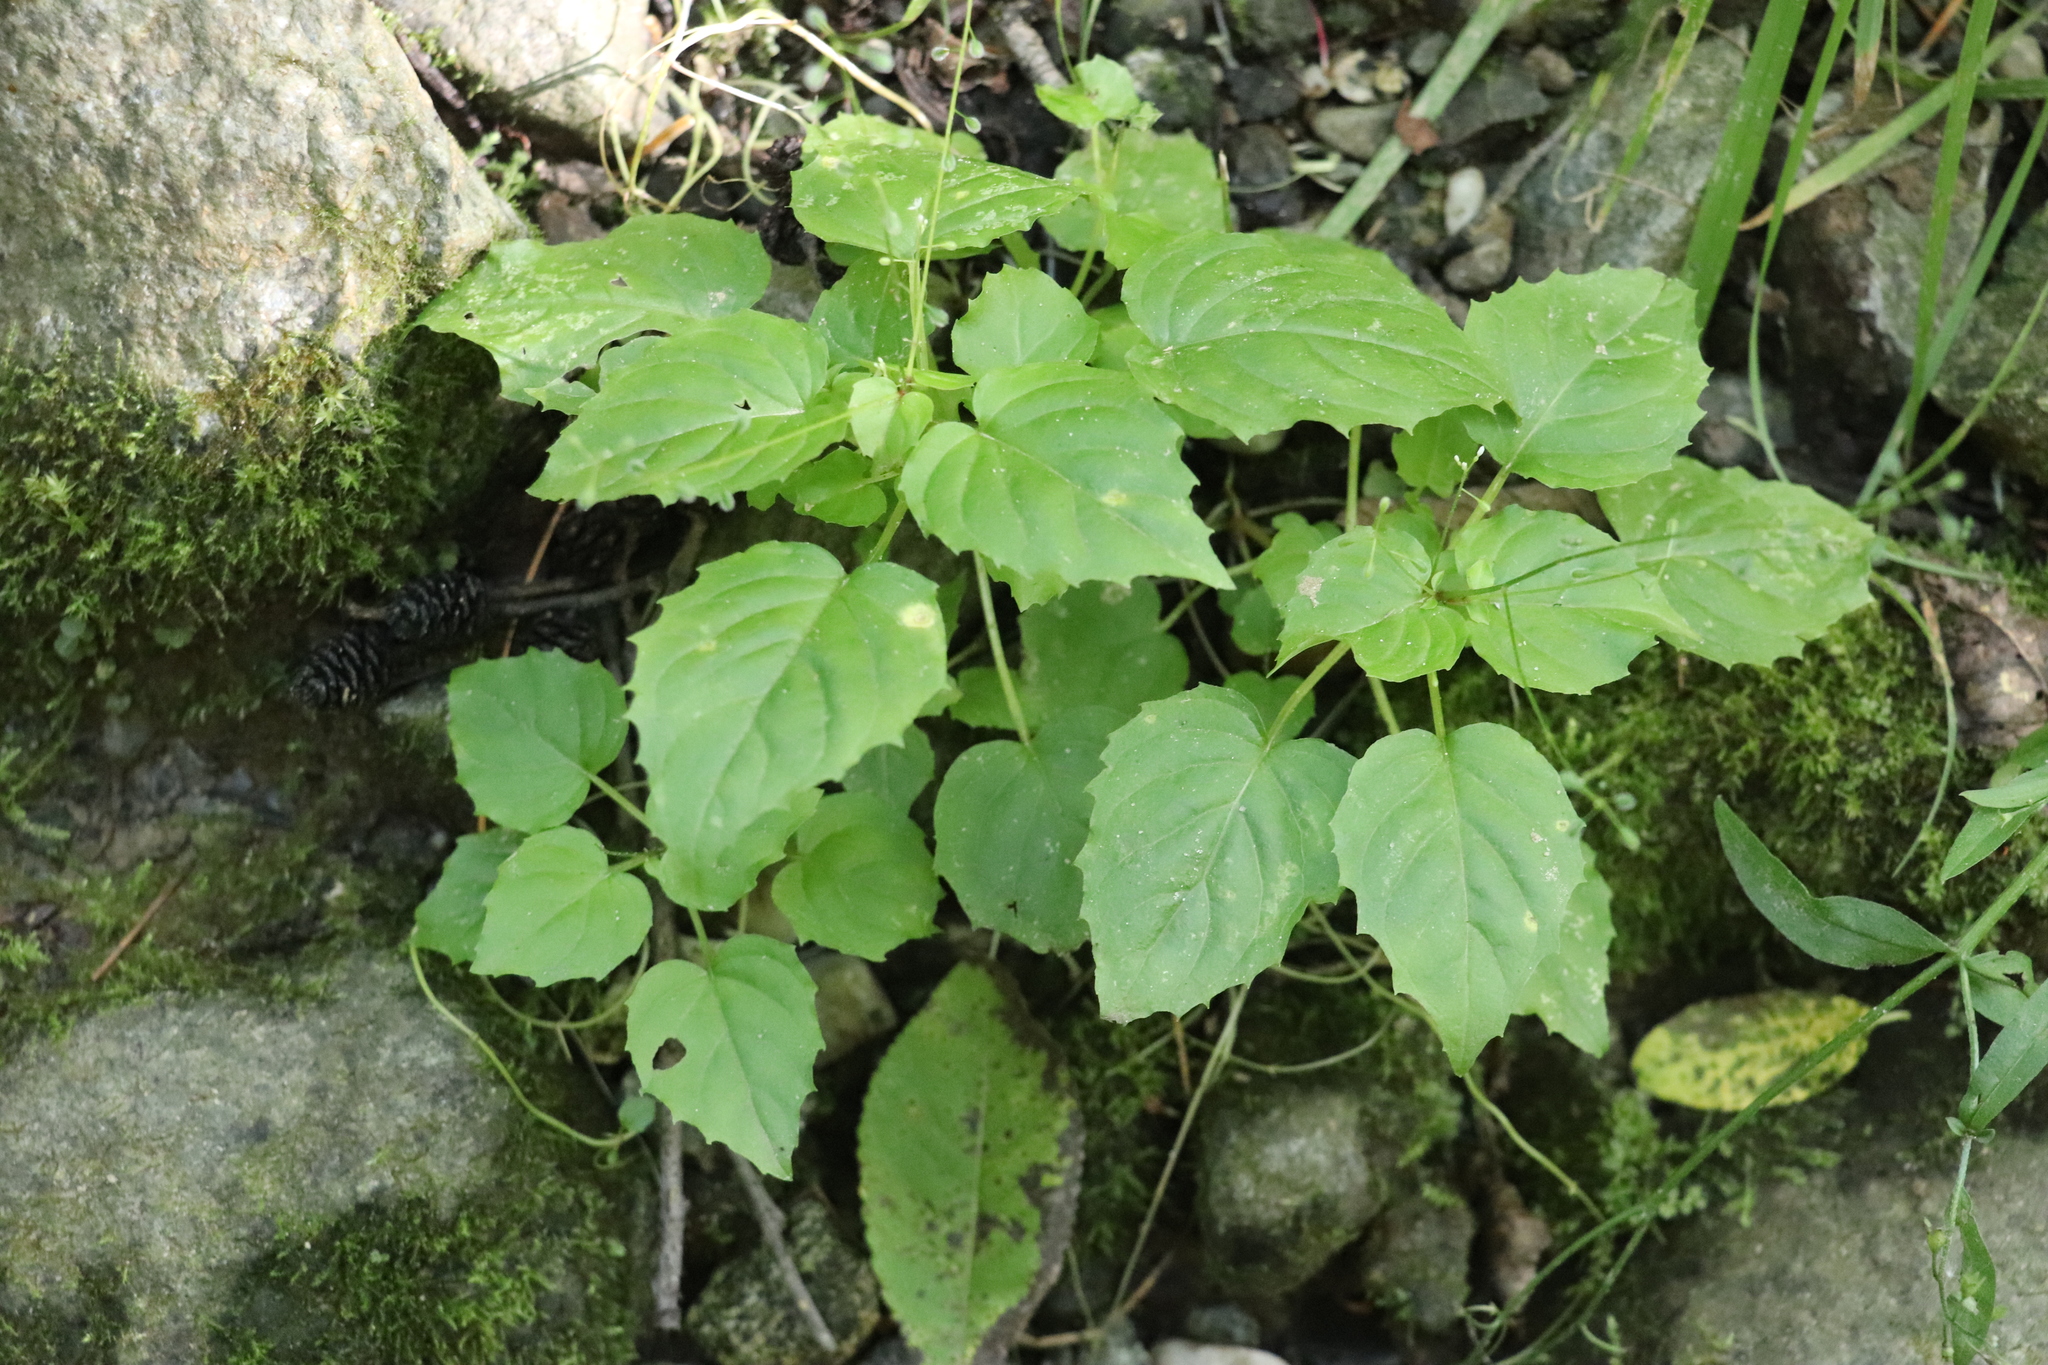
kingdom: Plantae
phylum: Tracheophyta
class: Magnoliopsida
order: Myrtales
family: Onagraceae
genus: Circaea
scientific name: Circaea alpina
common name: Alpine enchanter's-nightshade
